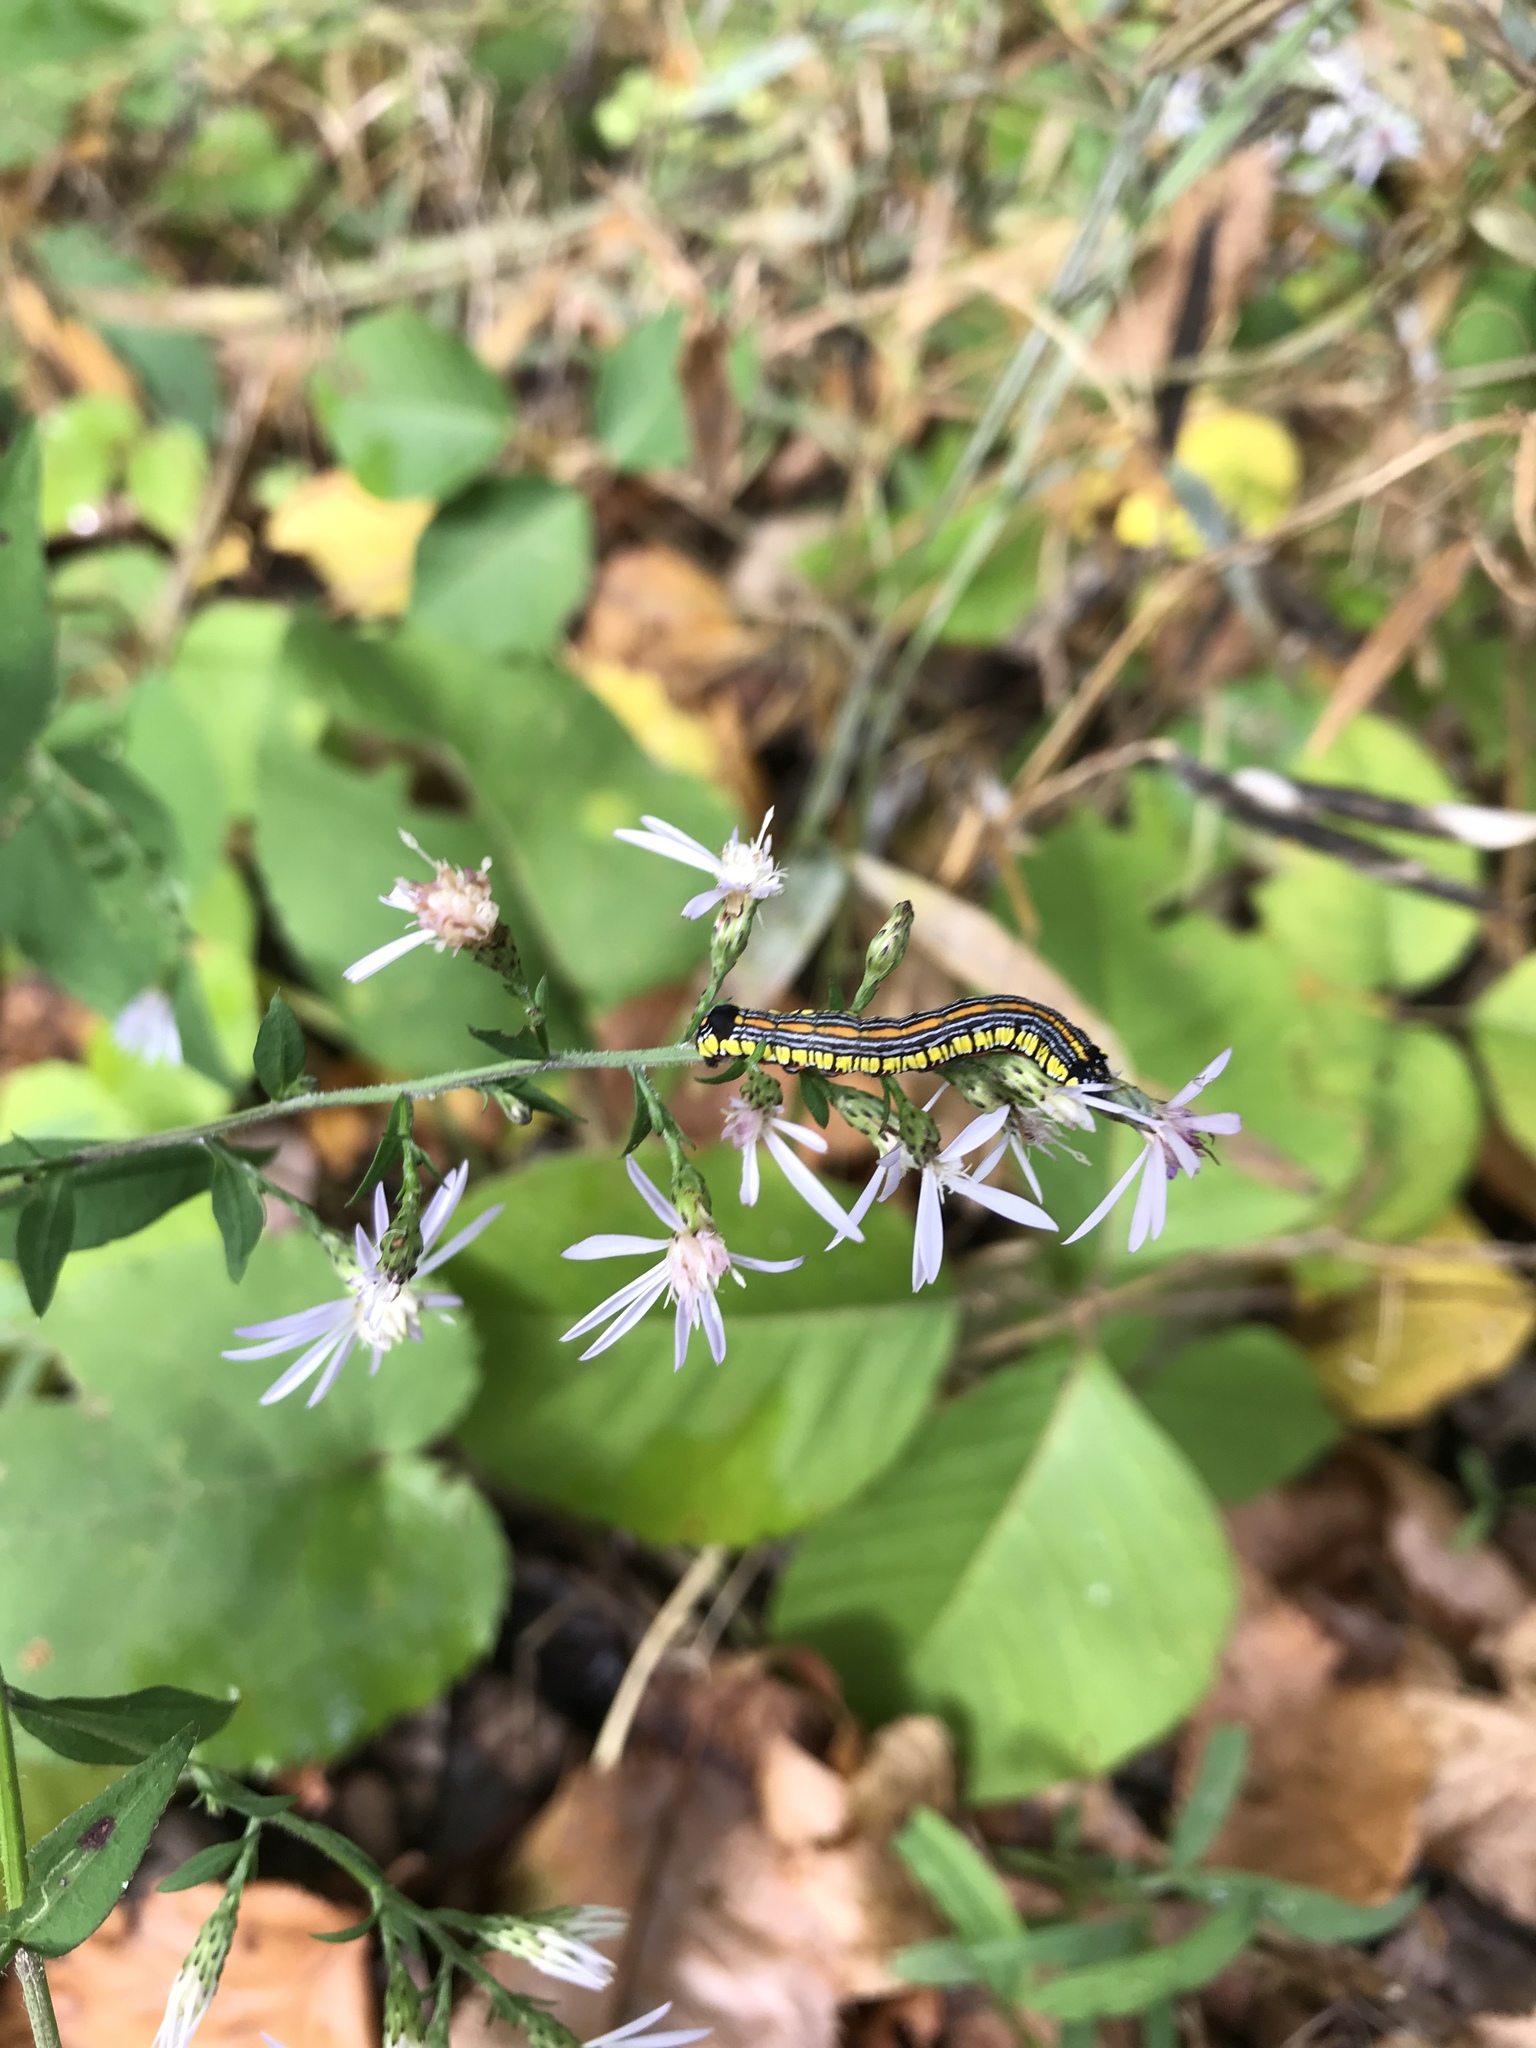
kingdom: Animalia
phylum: Arthropoda
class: Insecta
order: Lepidoptera
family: Noctuidae
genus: Cucullia
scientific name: Cucullia convexipennis
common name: Brown-hooded owlet
